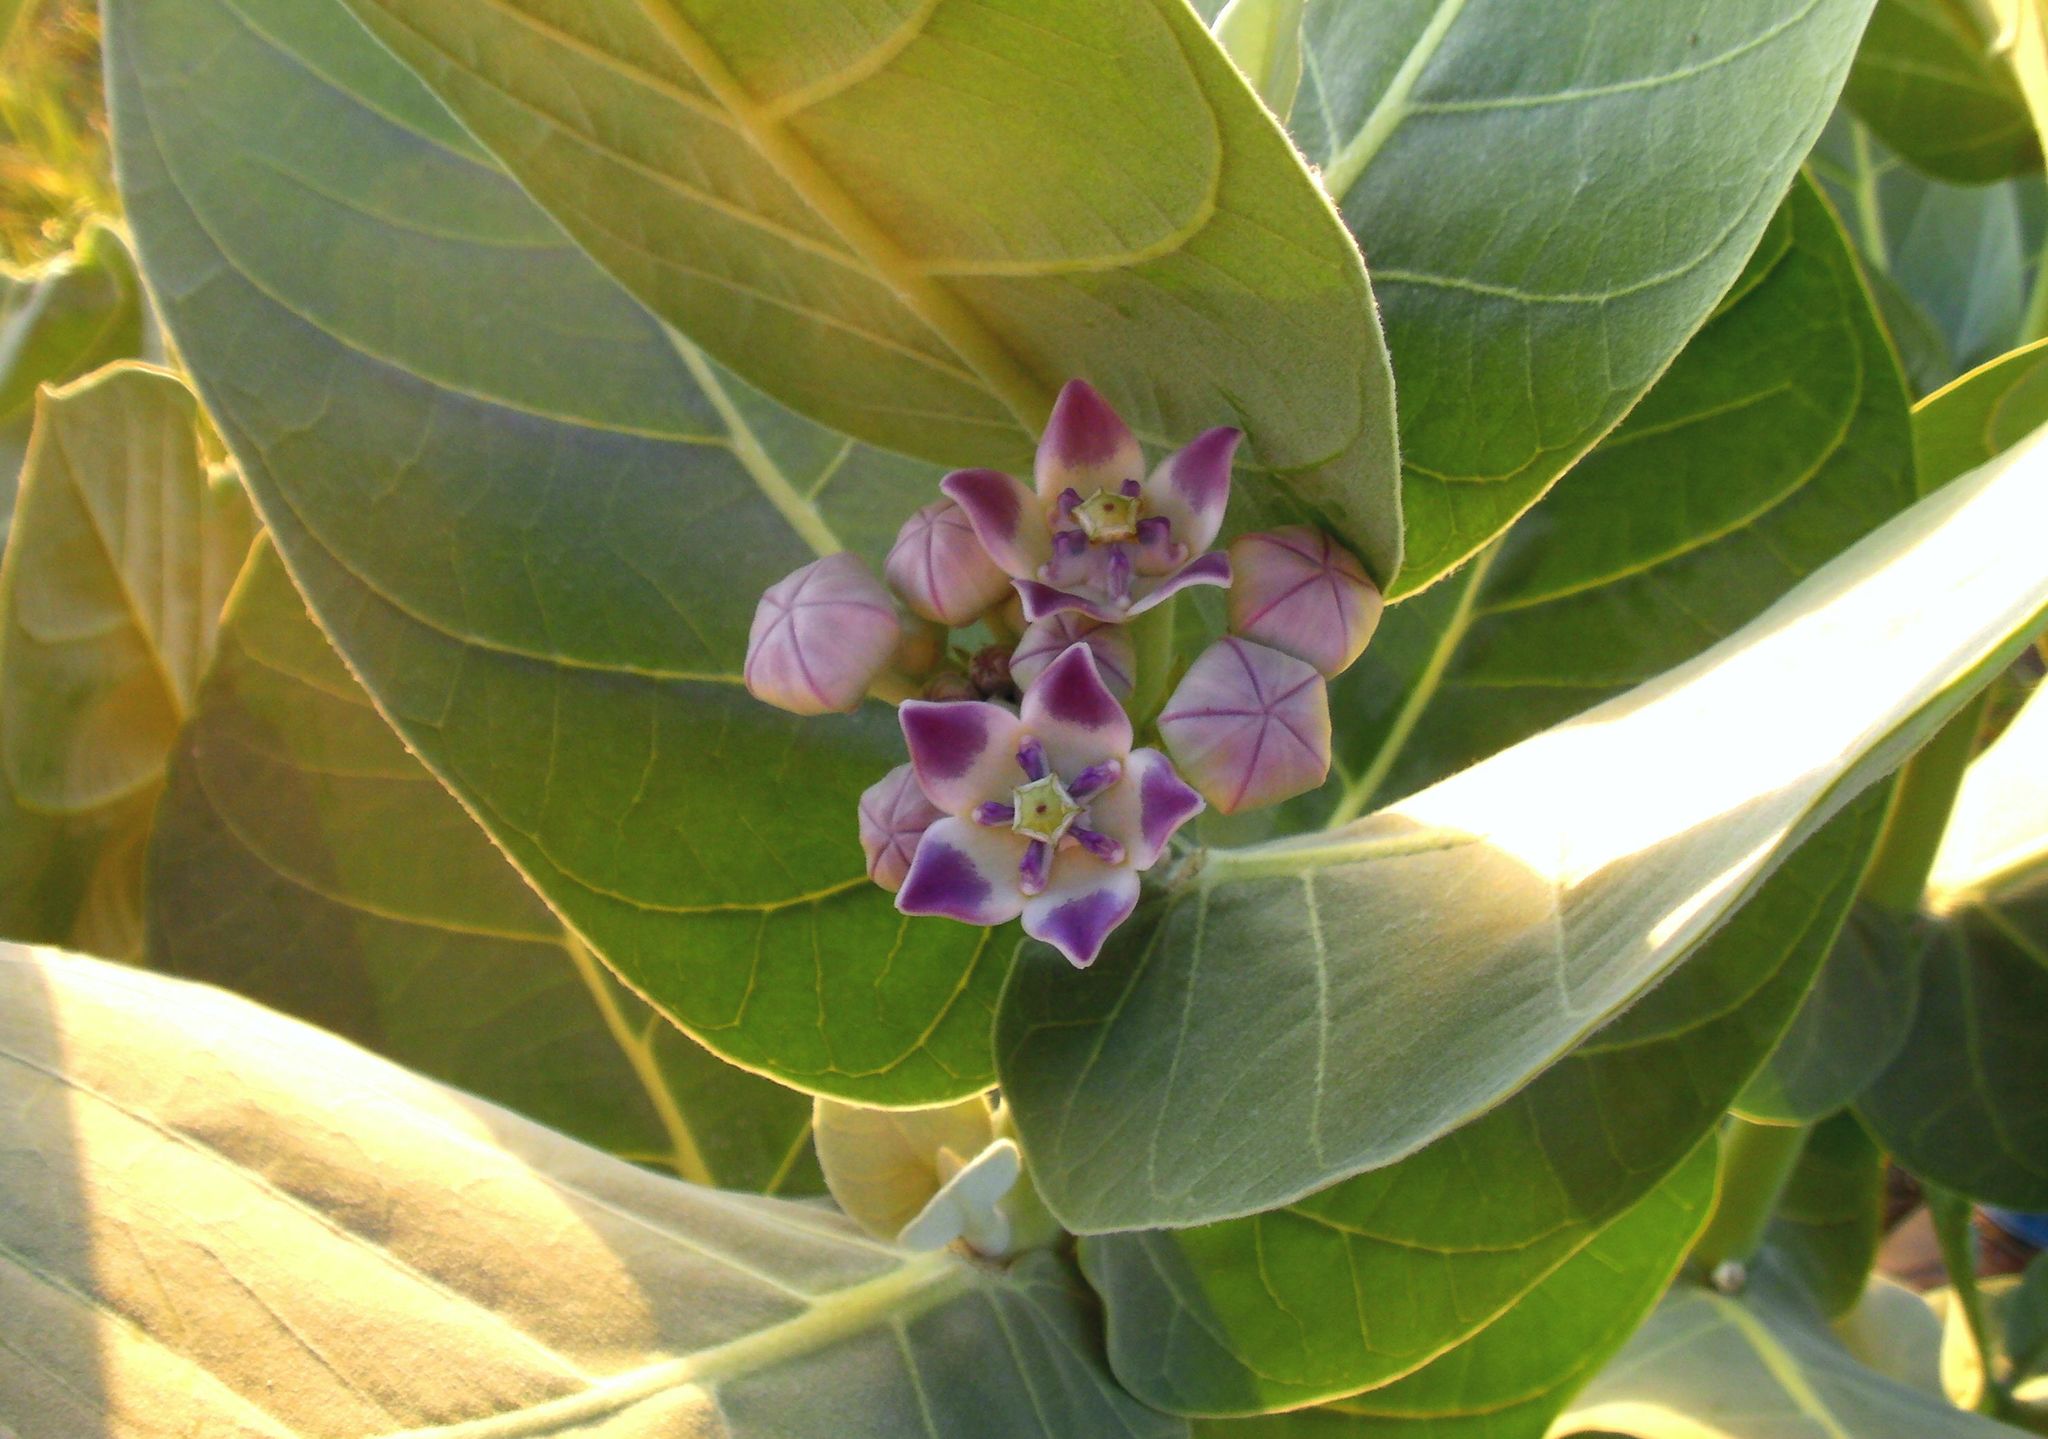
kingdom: Plantae
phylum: Tracheophyta
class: Magnoliopsida
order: Gentianales
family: Apocynaceae
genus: Calotropis
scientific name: Calotropis procera
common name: Roostertree
